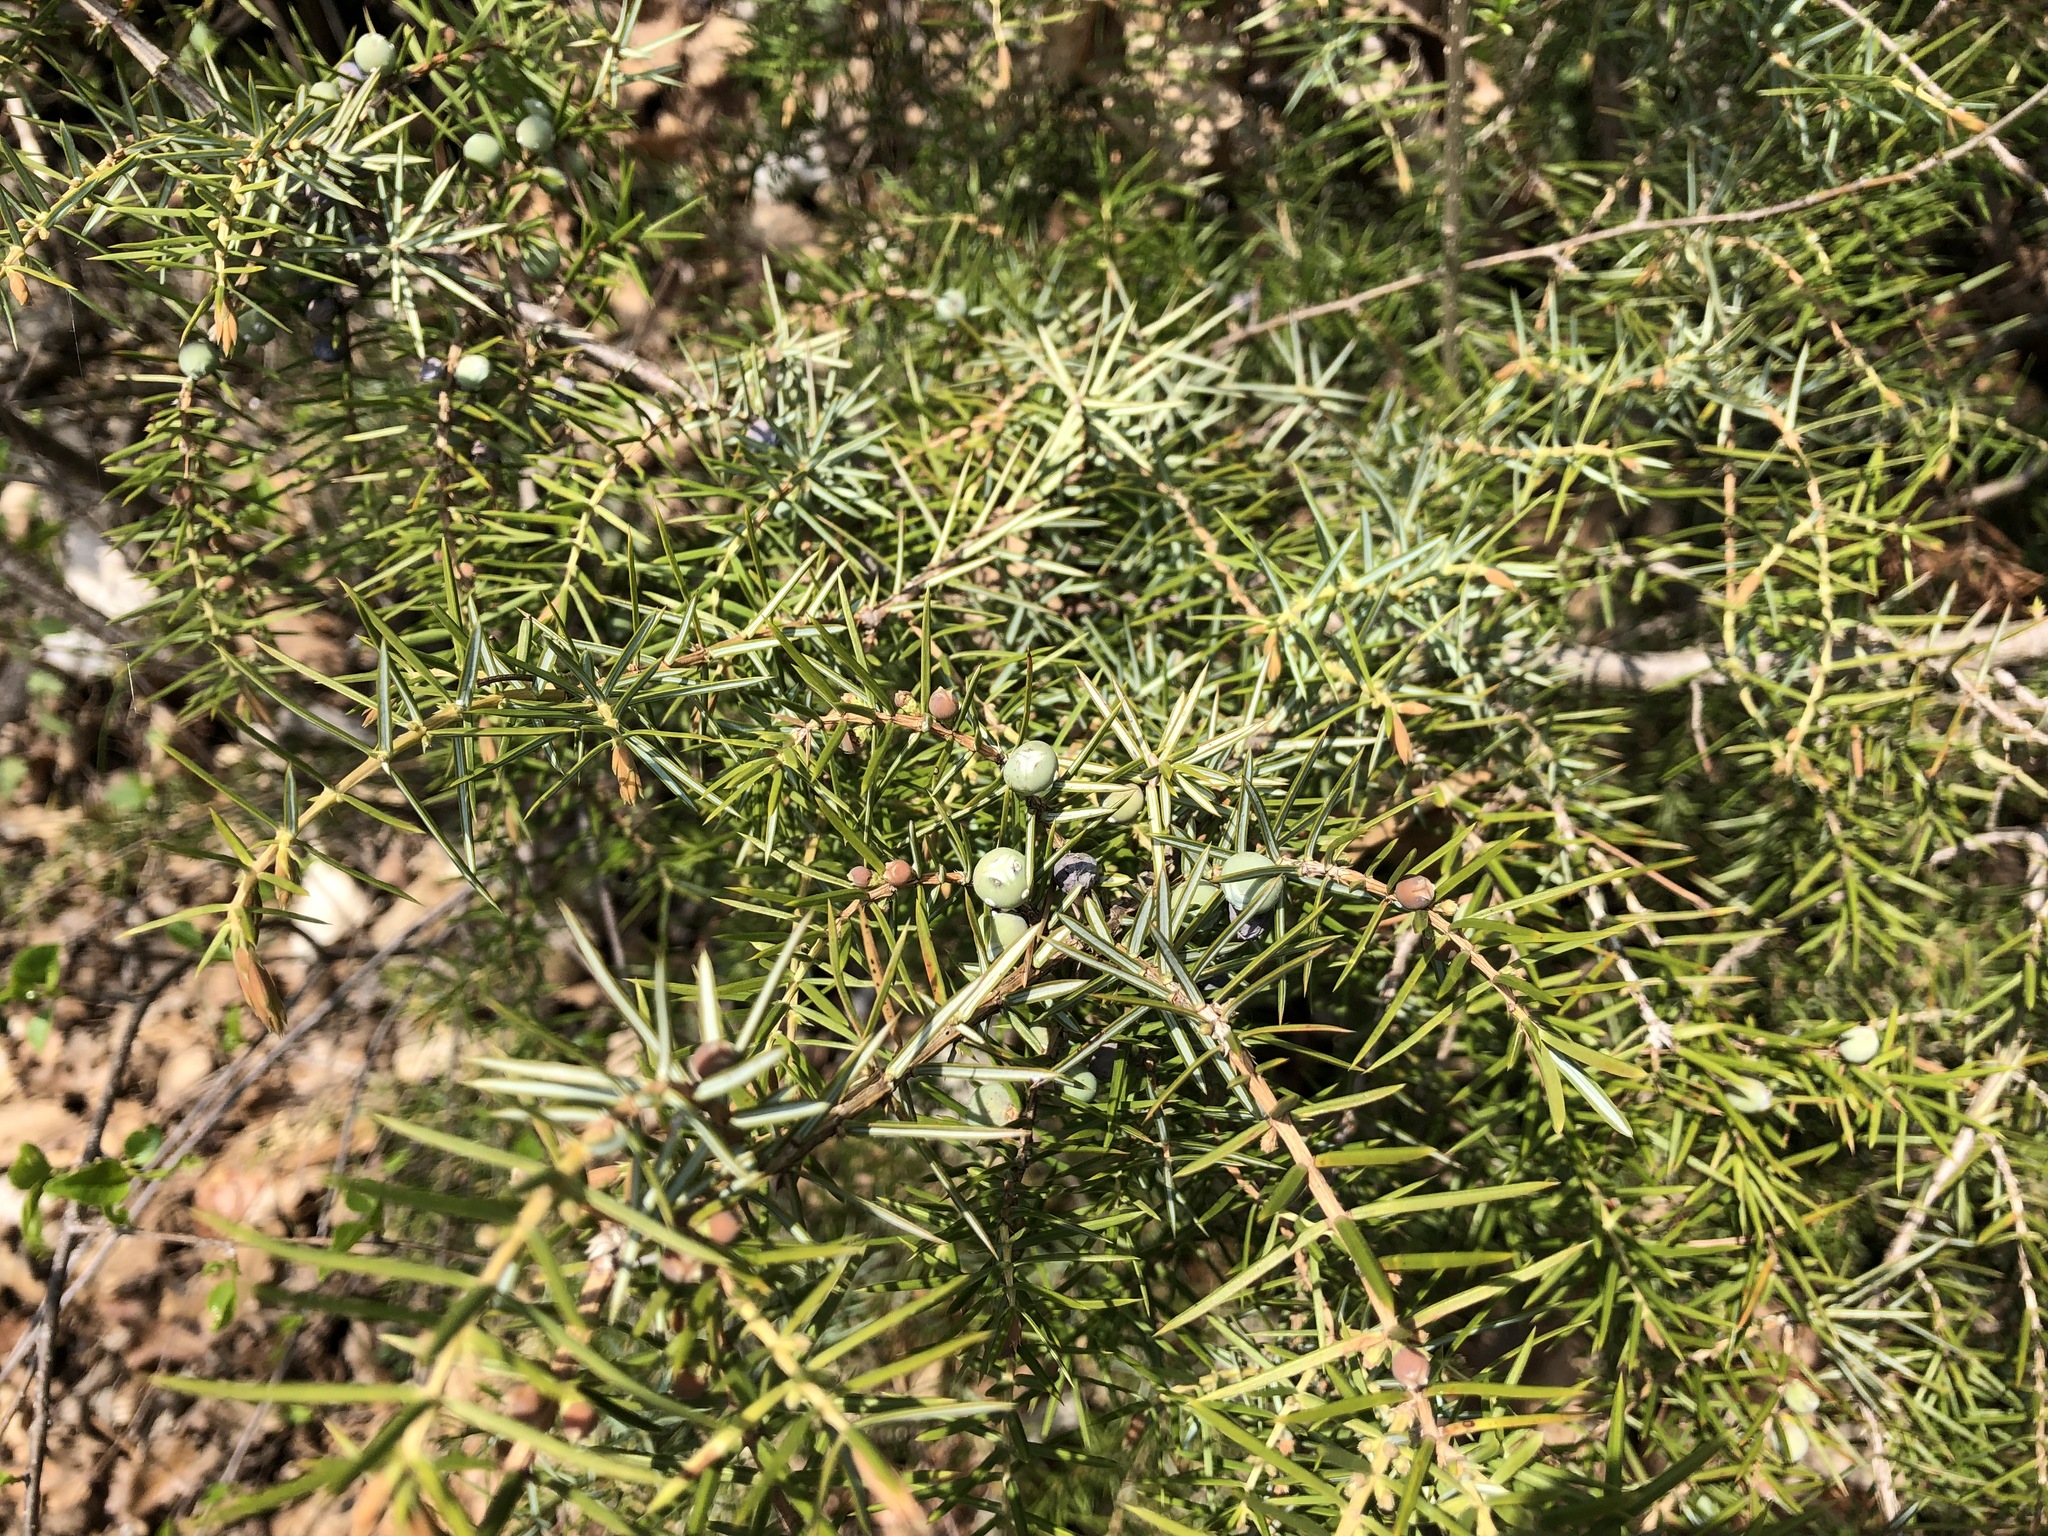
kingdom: Plantae
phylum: Tracheophyta
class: Pinopsida
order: Pinales
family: Cupressaceae
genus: Juniperus
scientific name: Juniperus communis
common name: Common juniper
